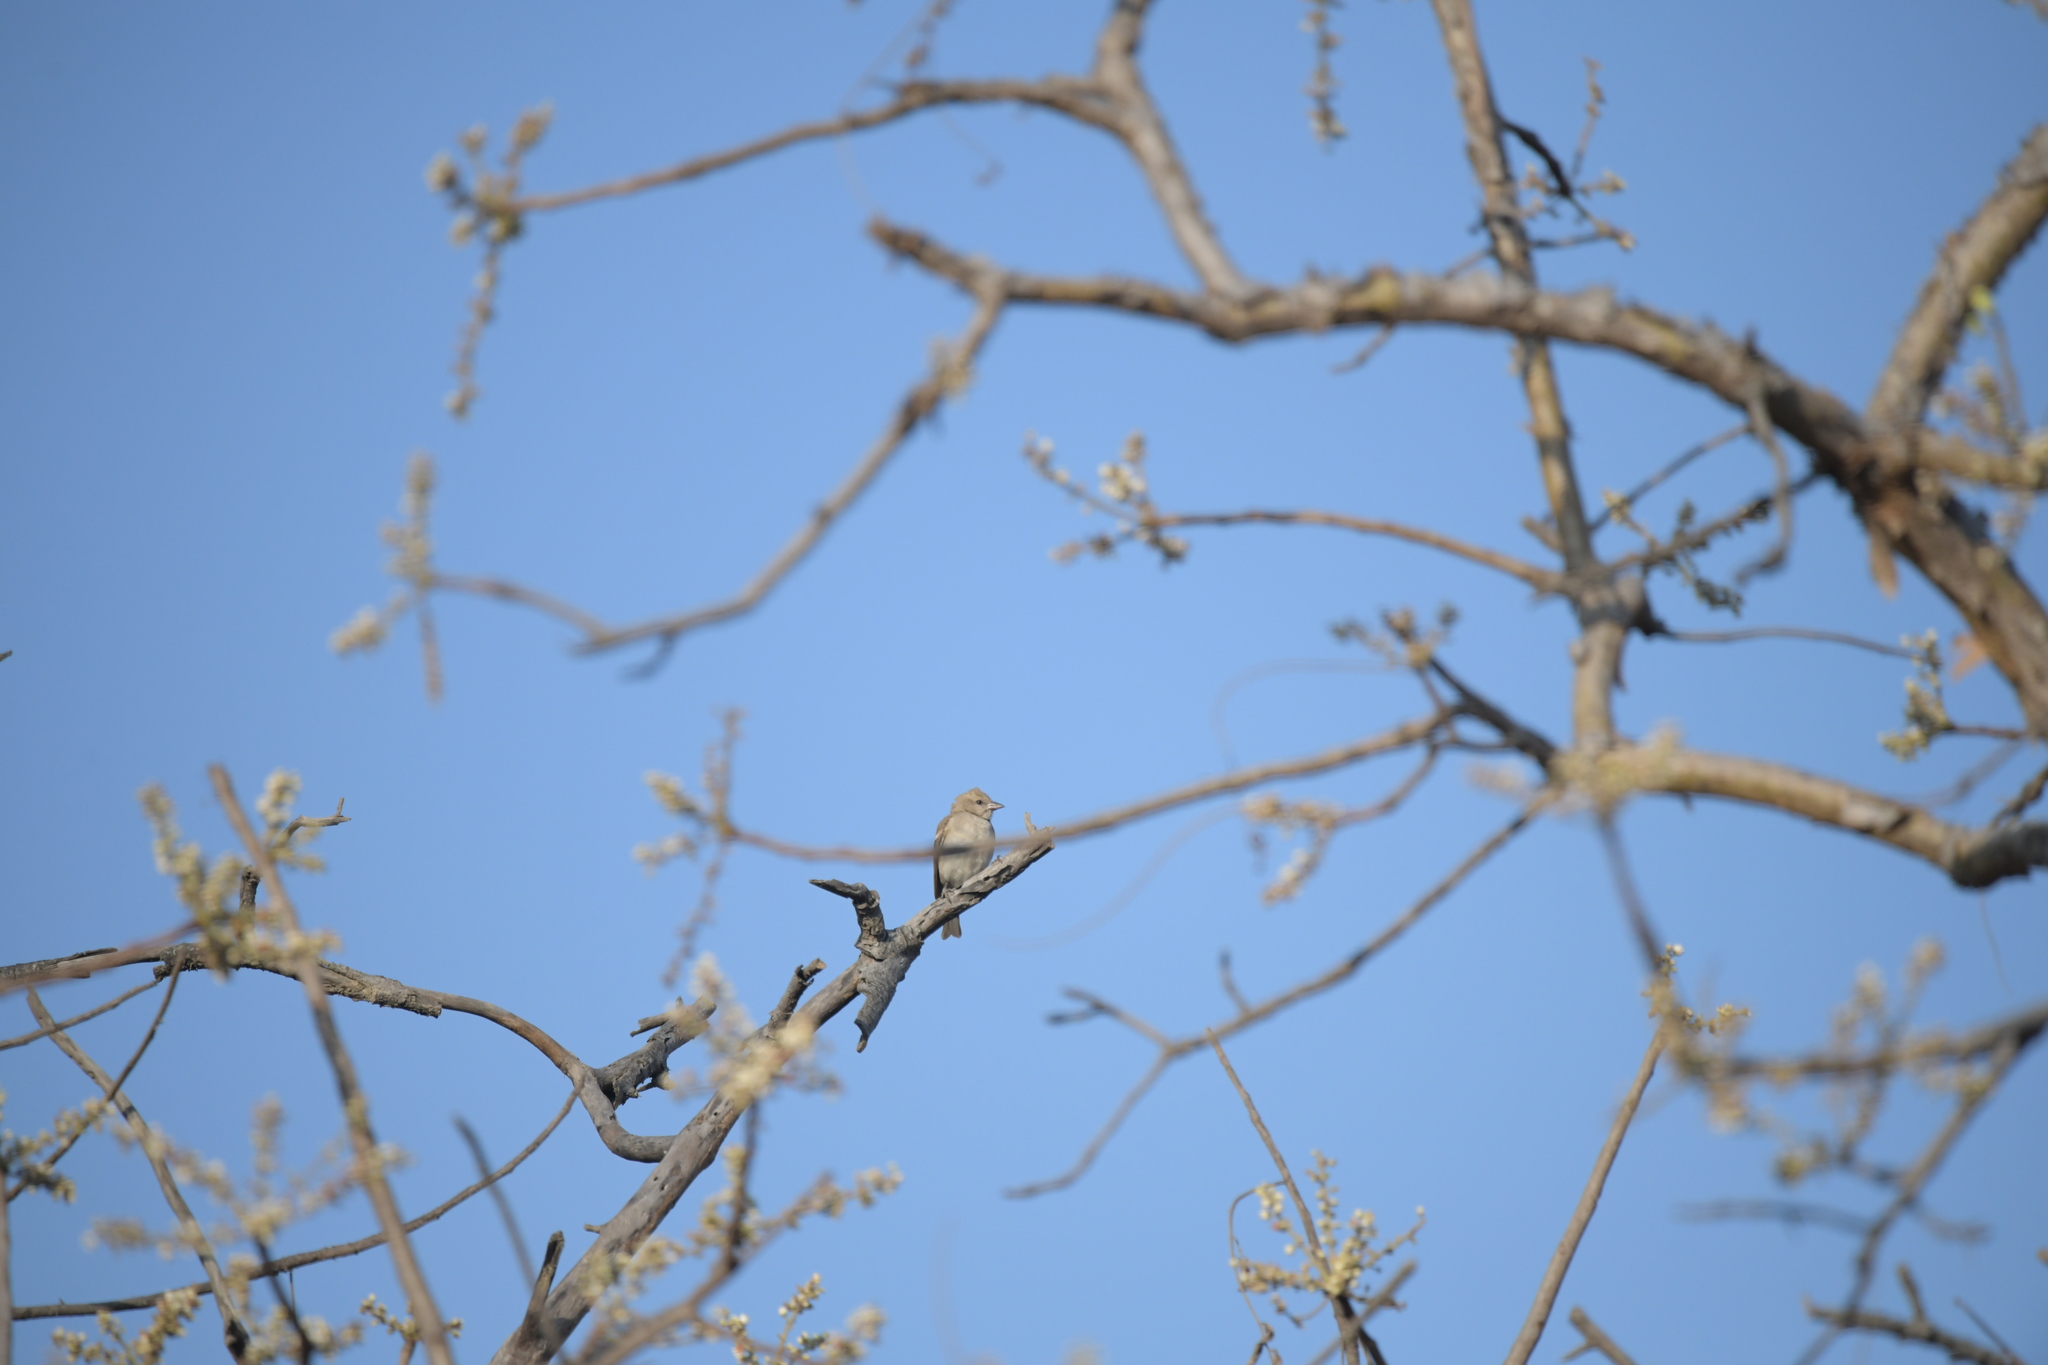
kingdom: Animalia
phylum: Chordata
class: Aves
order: Passeriformes
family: Passeridae
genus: Gymnoris
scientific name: Gymnoris xanthocollis
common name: Yellow-throated sparrow
